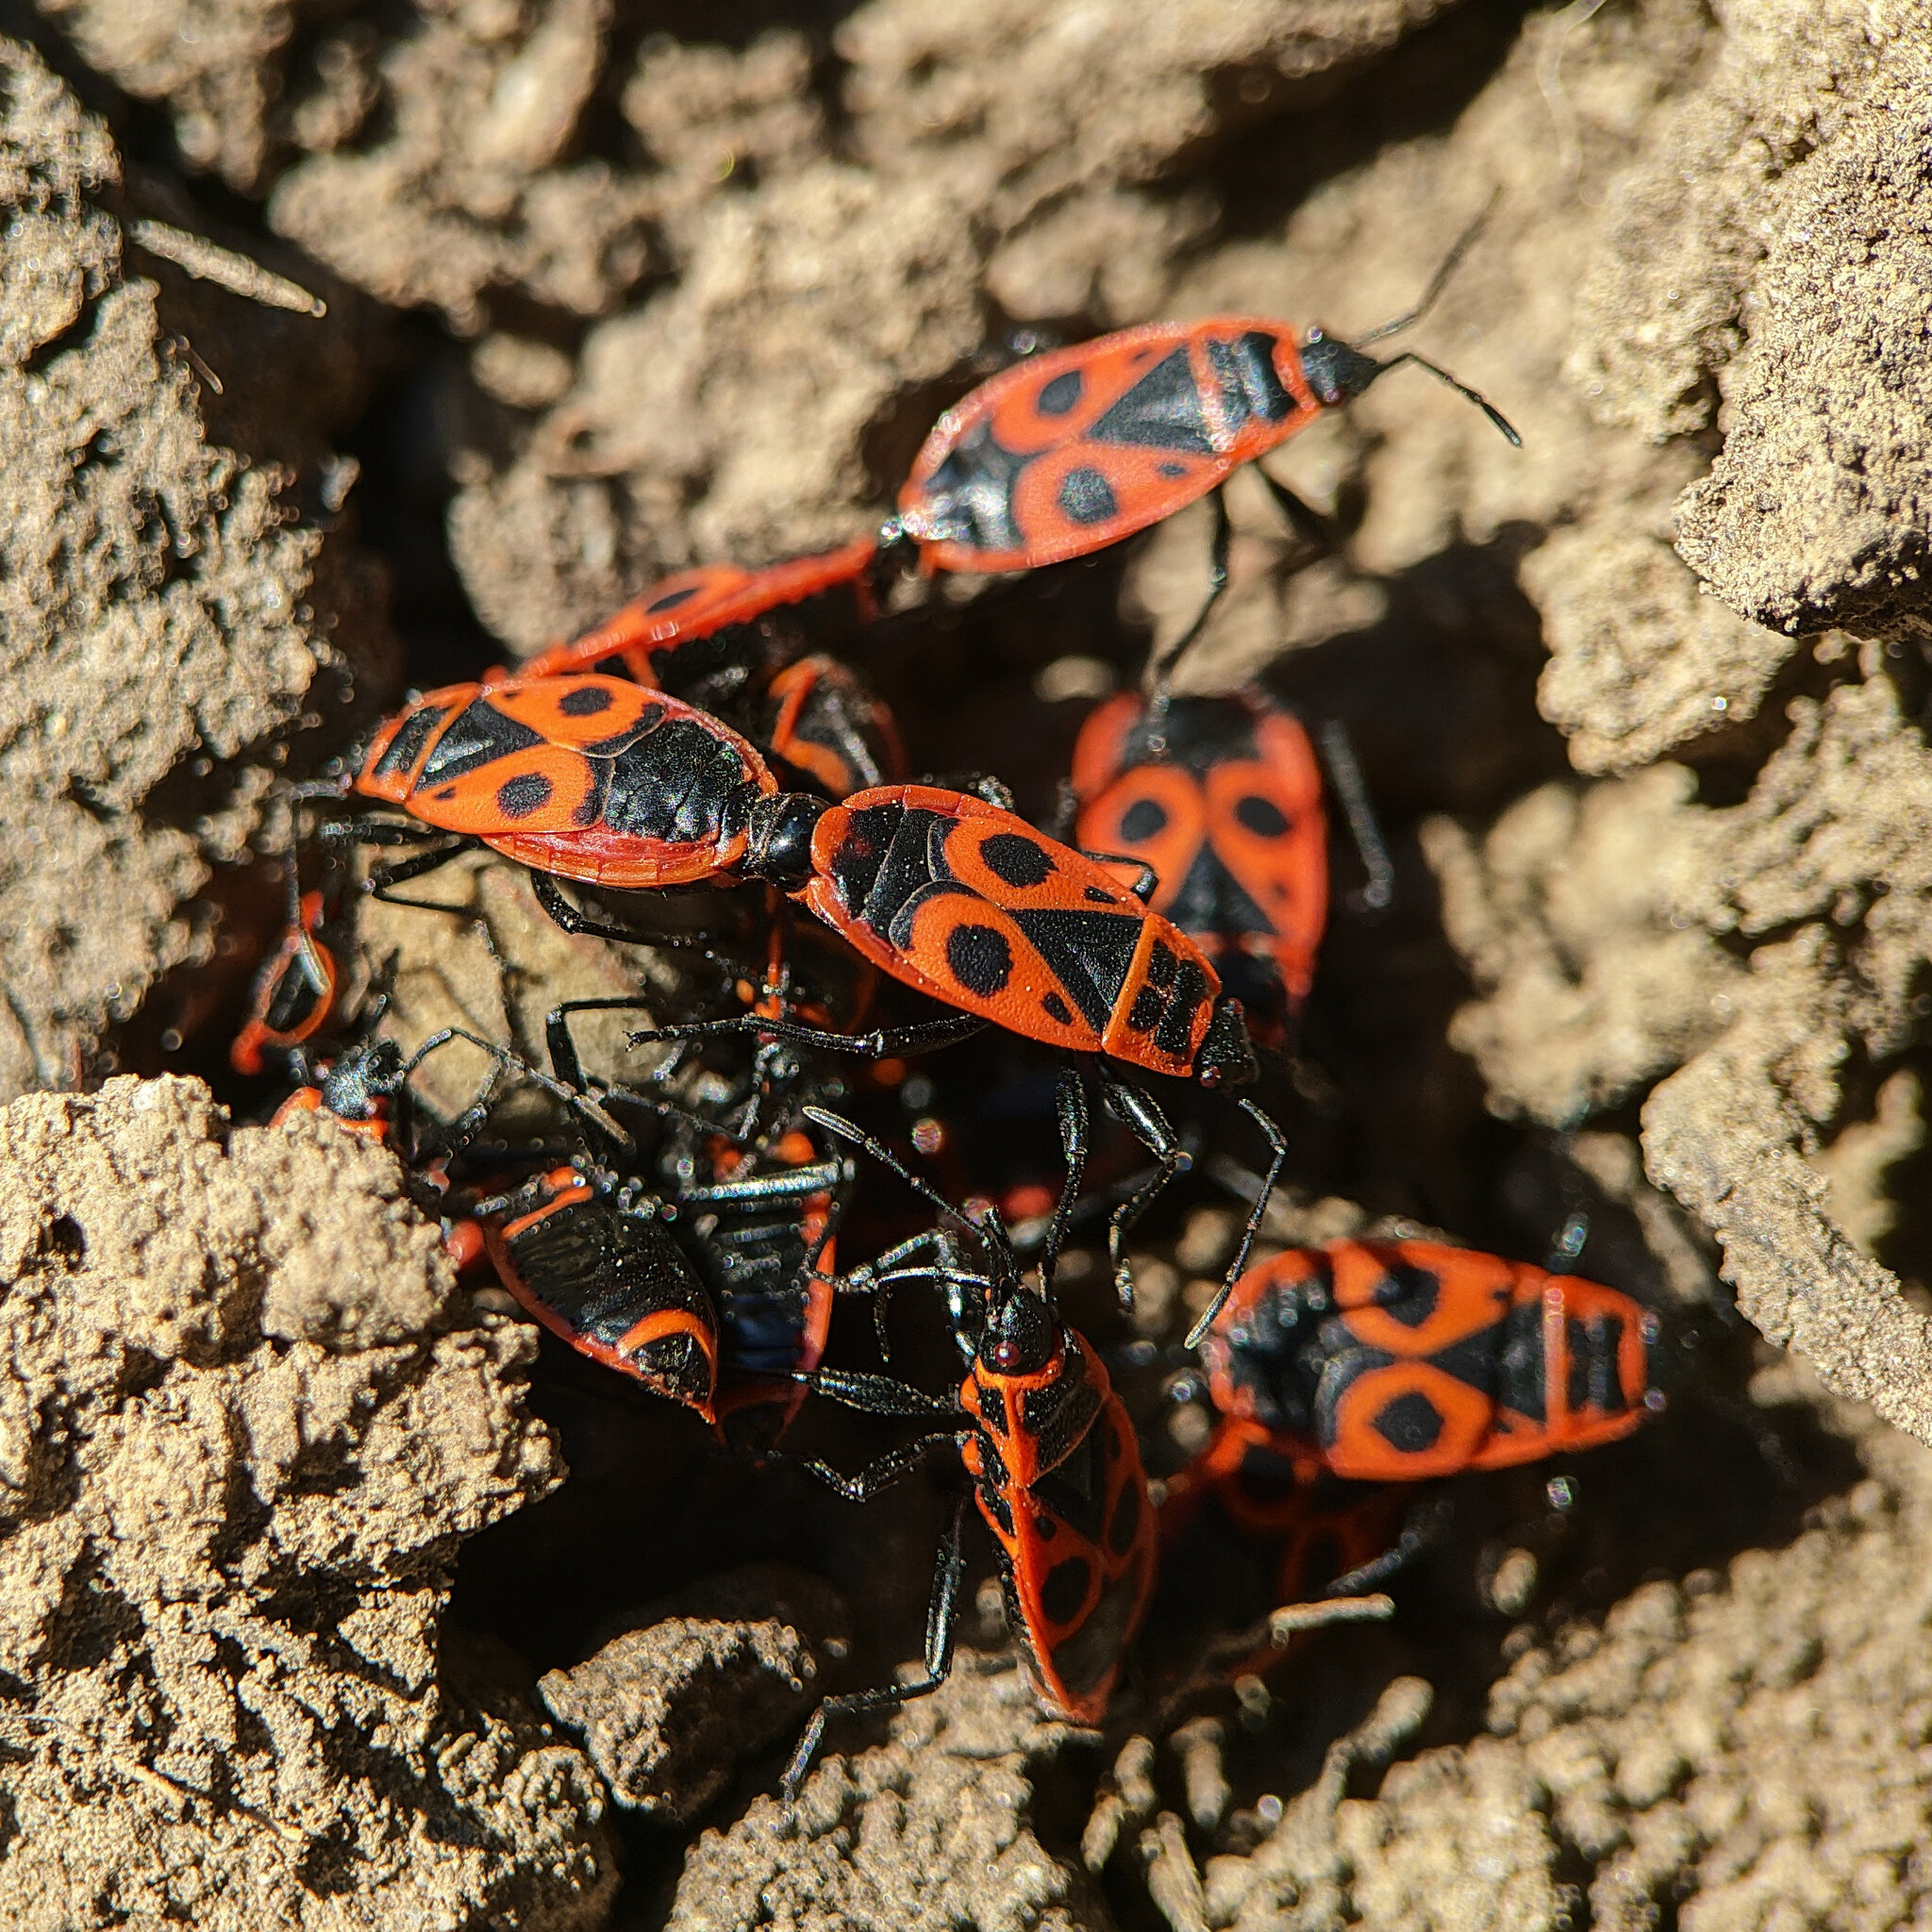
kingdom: Animalia
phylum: Arthropoda
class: Insecta
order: Hemiptera
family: Pyrrhocoridae
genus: Pyrrhocoris
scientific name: Pyrrhocoris apterus
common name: Firebug
